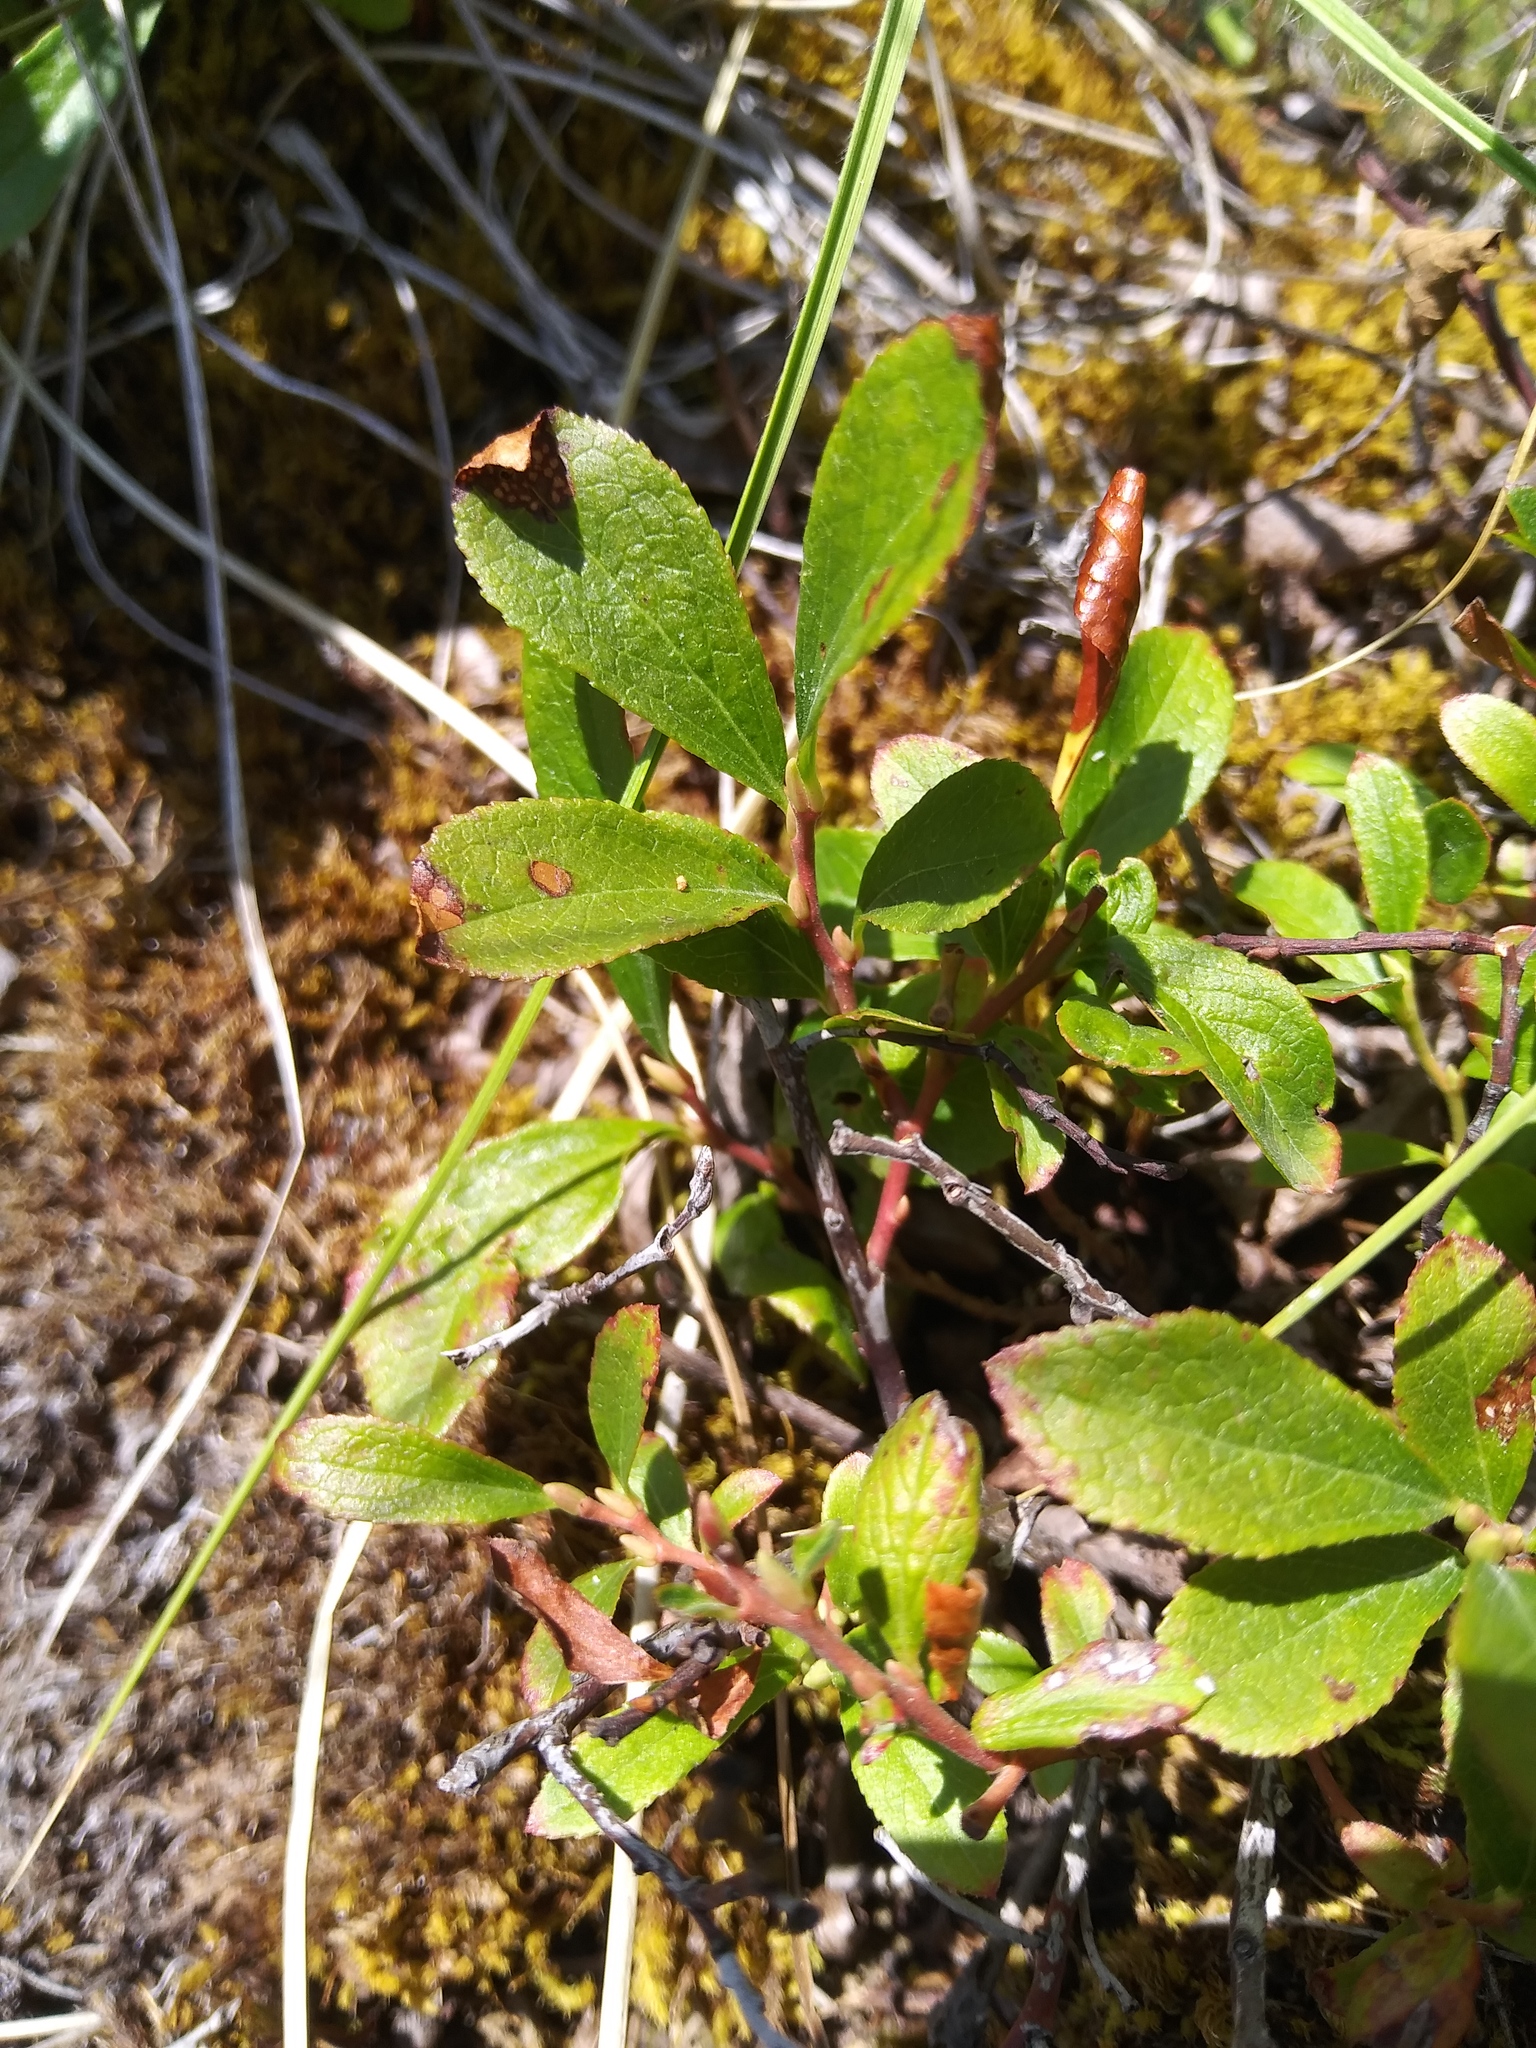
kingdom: Plantae
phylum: Tracheophyta
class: Magnoliopsida
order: Ericales
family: Ericaceae
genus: Vaccinium
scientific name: Vaccinium cespitosum
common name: Dwarf bilberry
